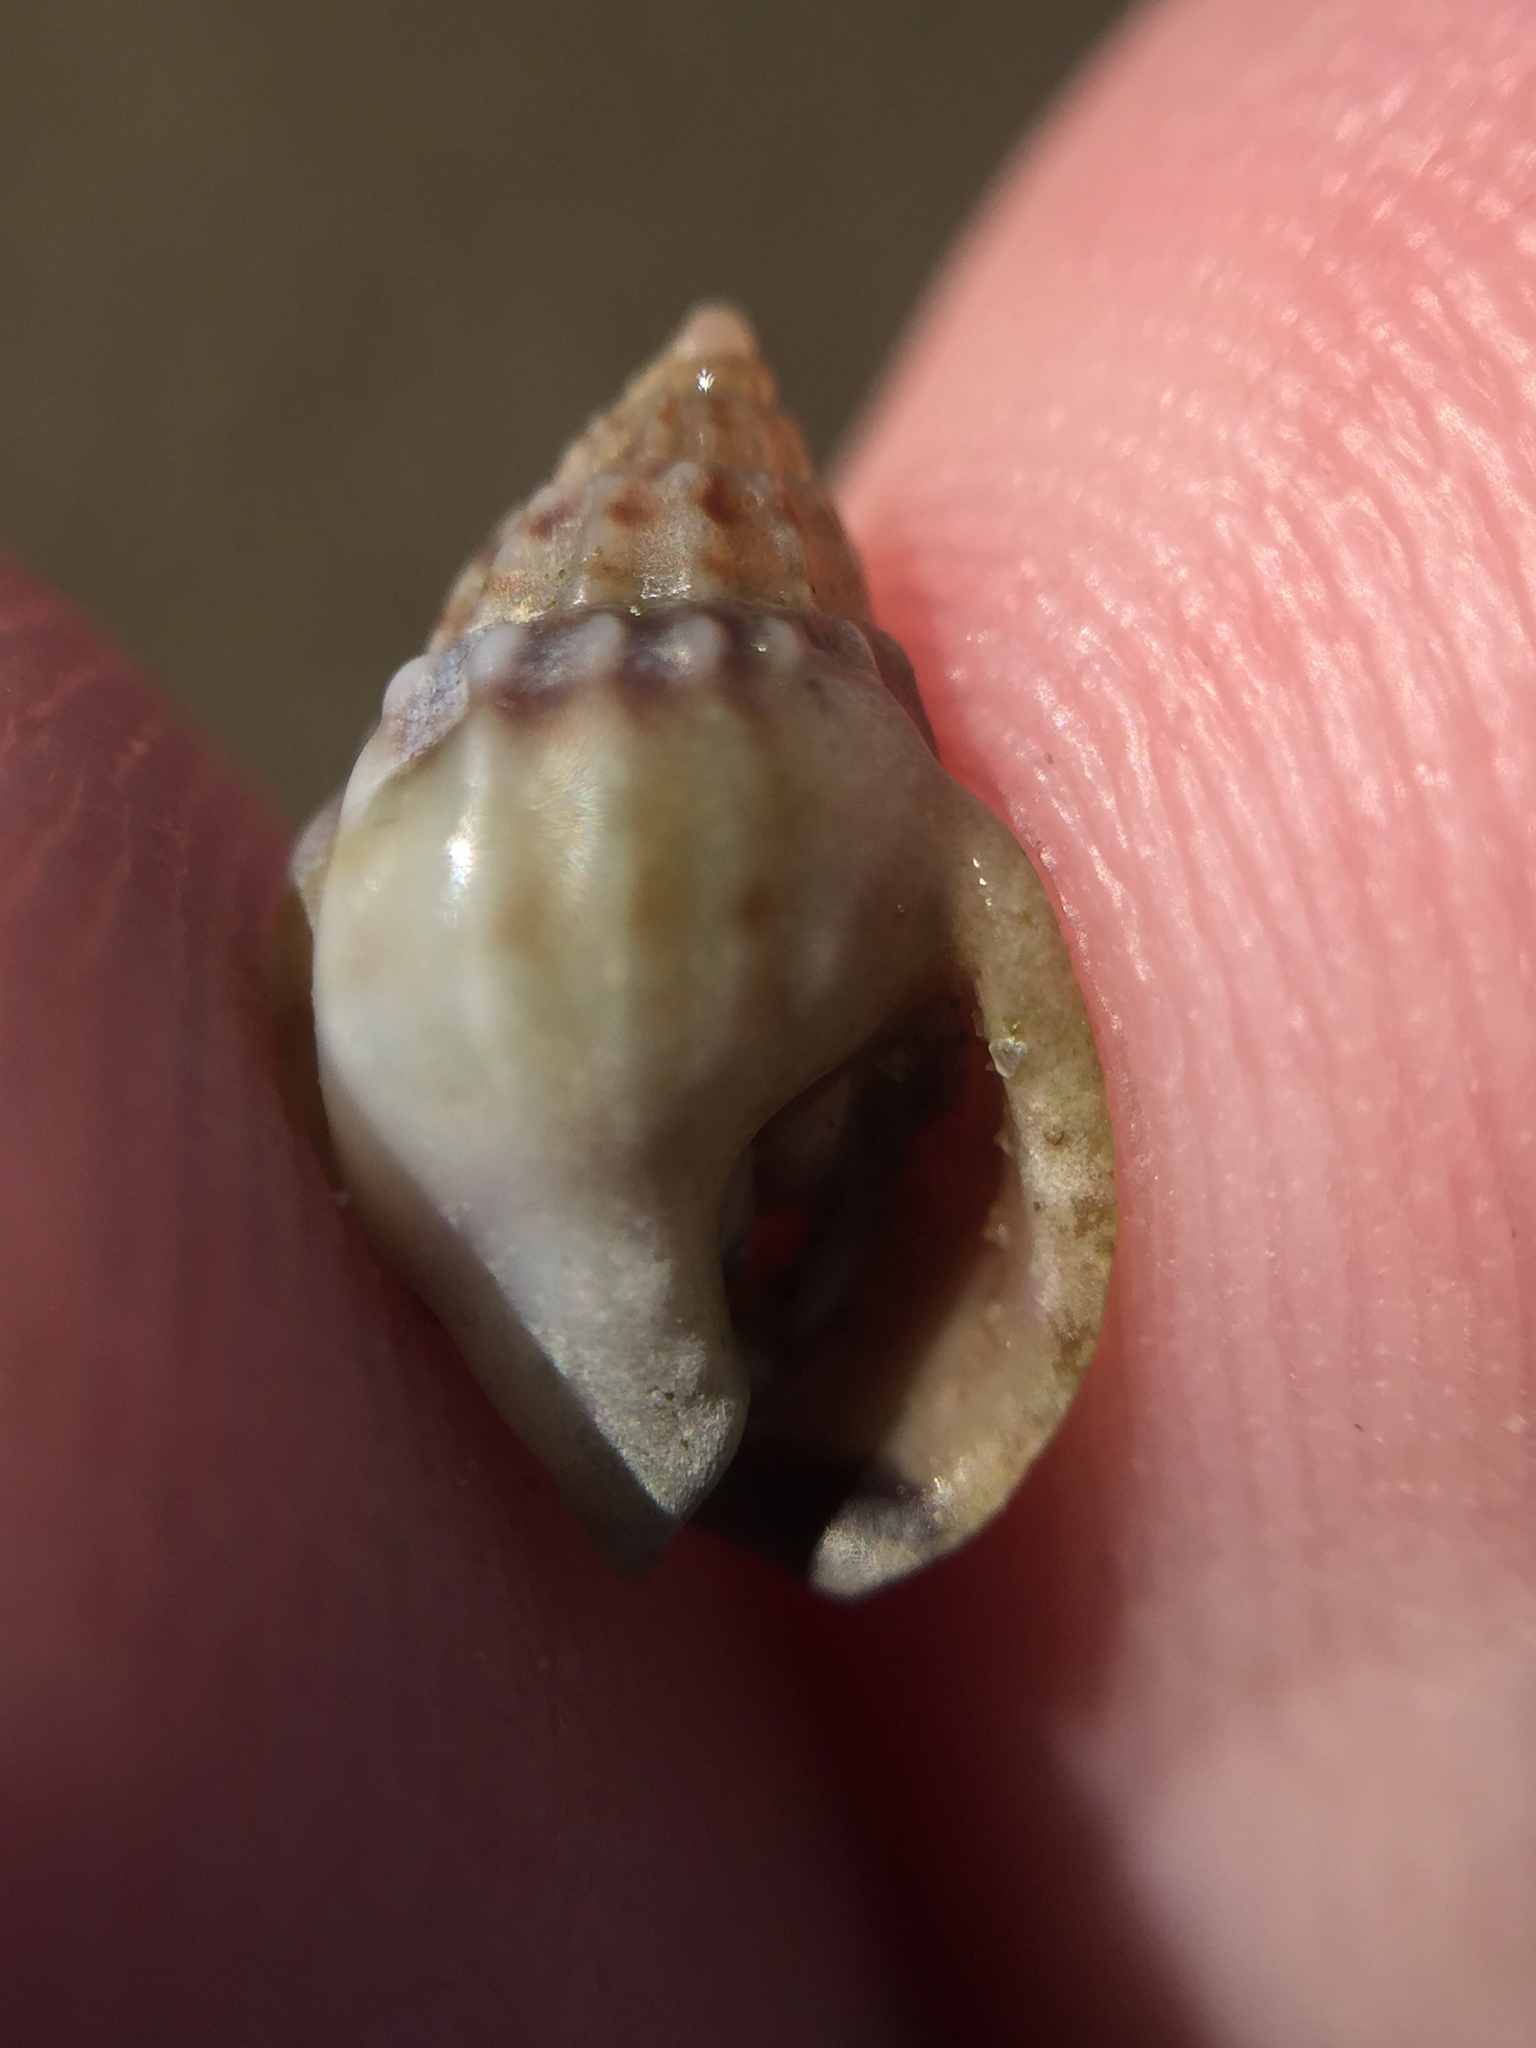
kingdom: Animalia
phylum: Mollusca
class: Gastropoda
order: Neogastropoda
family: Nassariidae
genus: Tritia
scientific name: Tritia burchardi
